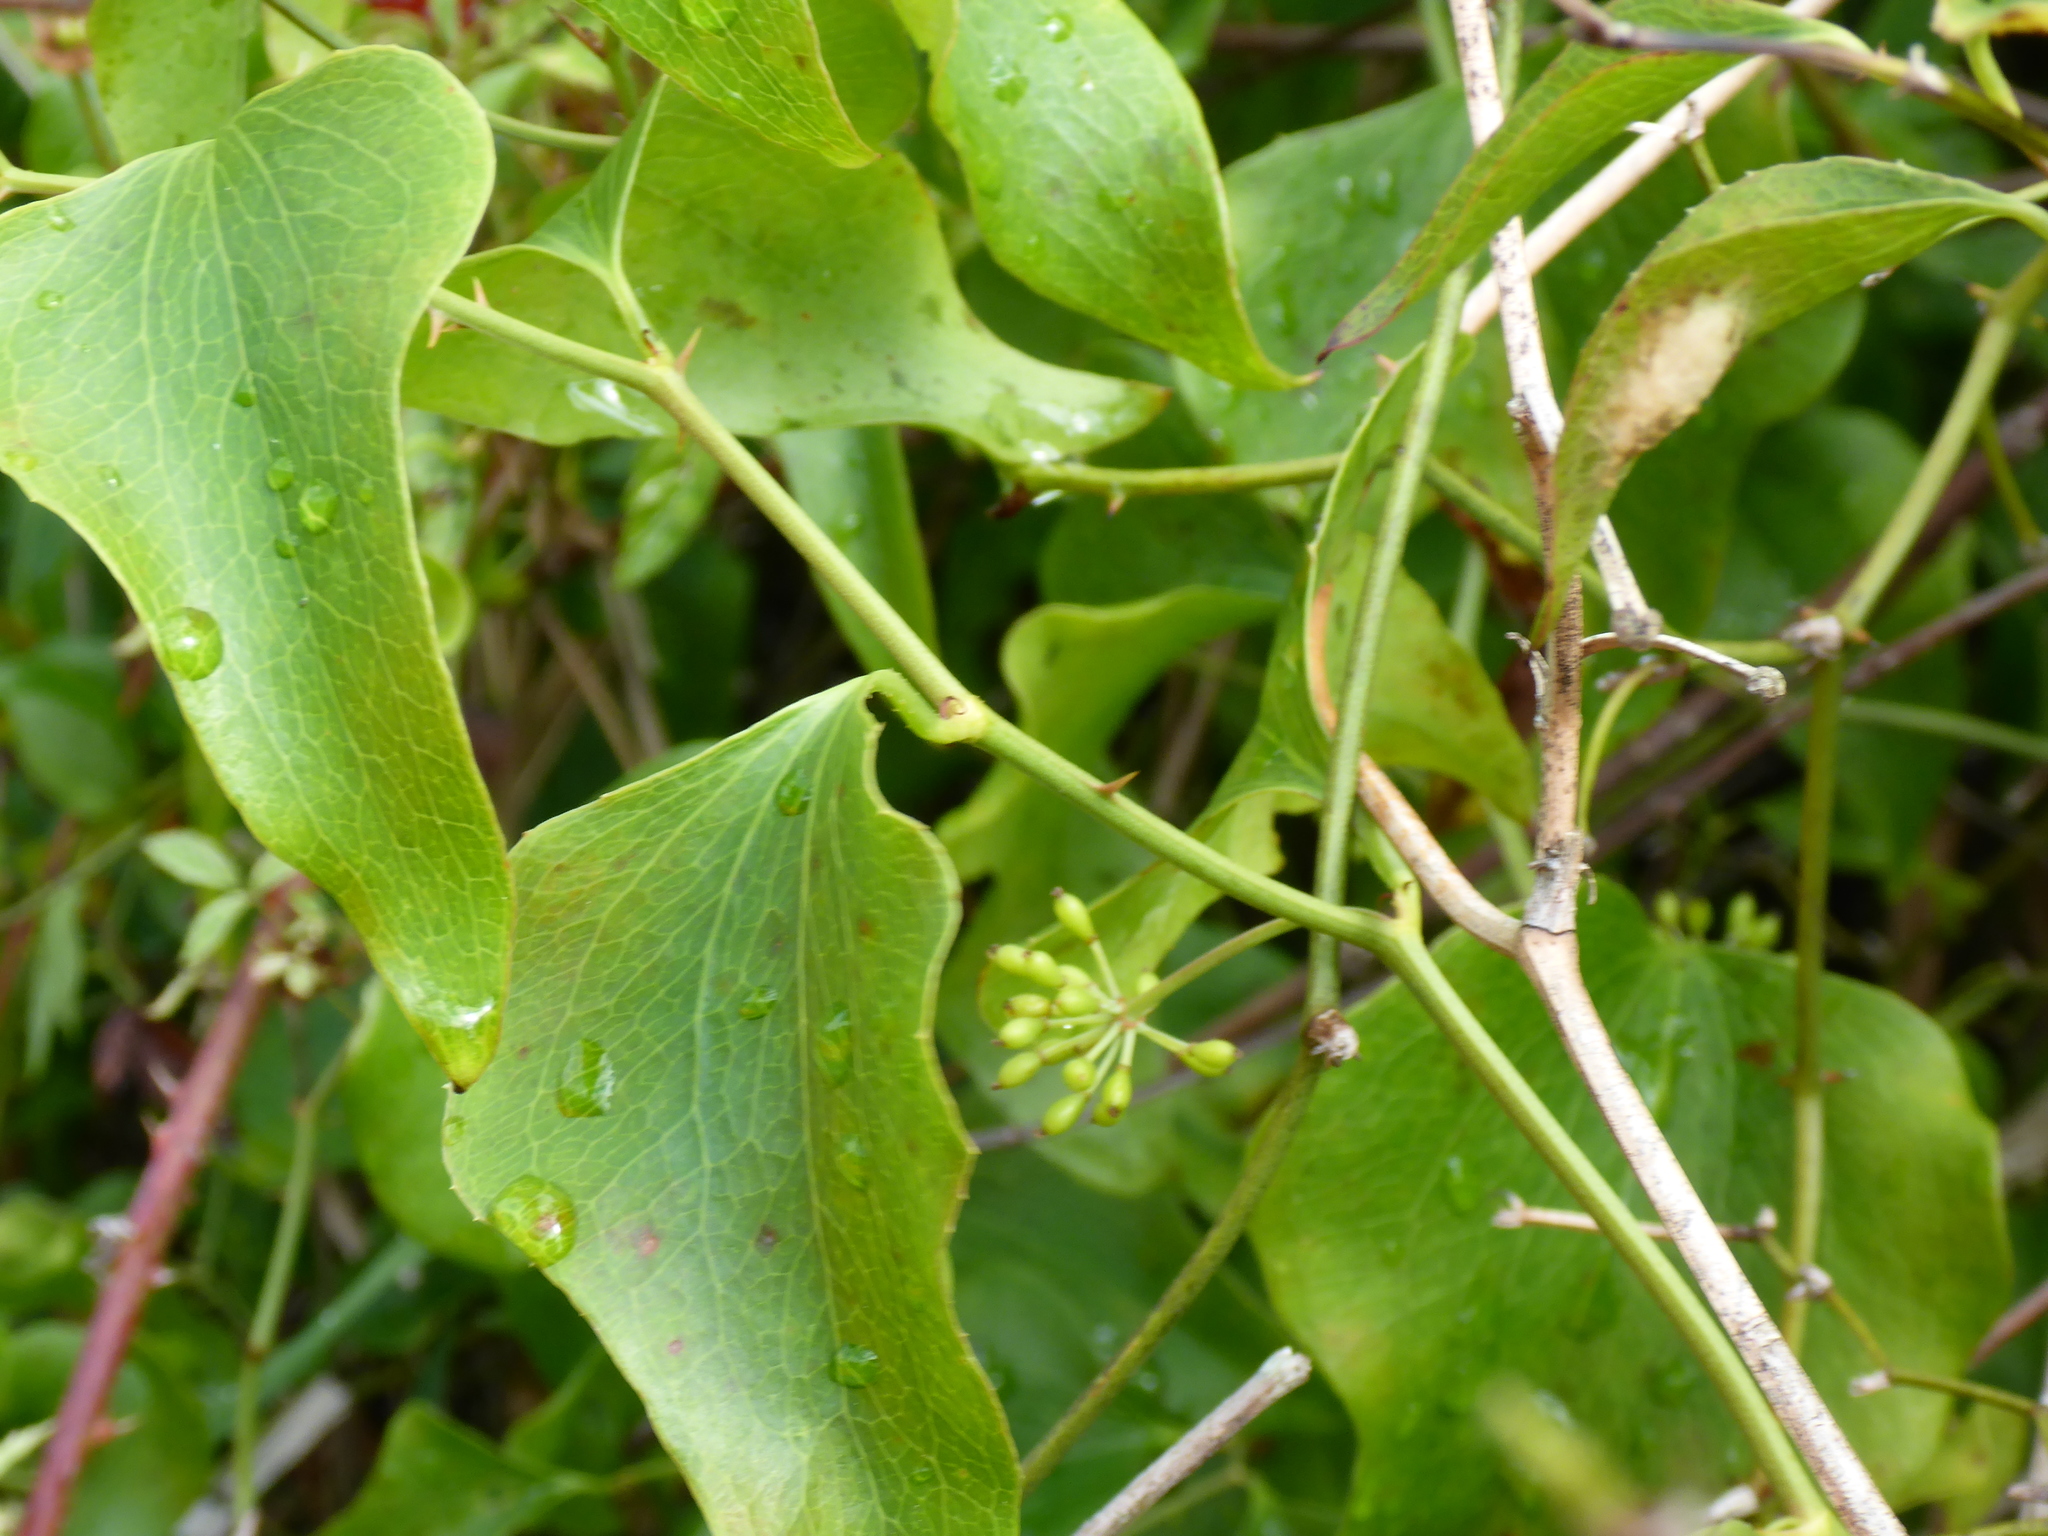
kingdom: Plantae
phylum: Tracheophyta
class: Liliopsida
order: Liliales
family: Smilacaceae
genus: Smilax
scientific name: Smilax auriculata
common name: Wild bamboo
